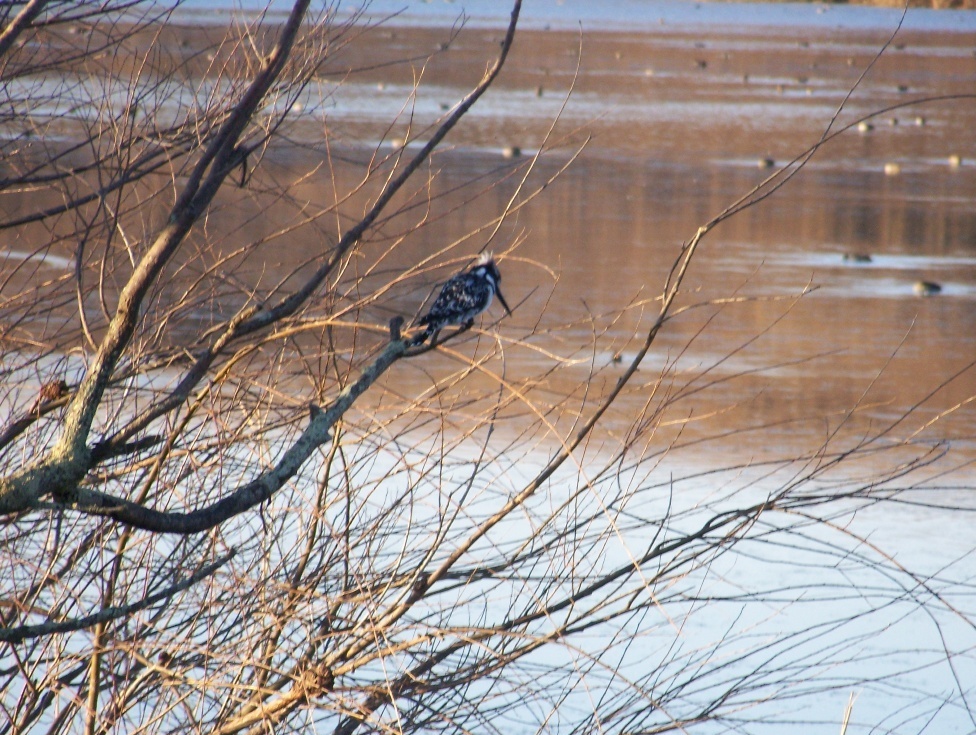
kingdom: Animalia
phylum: Chordata
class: Aves
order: Coraciiformes
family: Alcedinidae
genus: Ceryle
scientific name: Ceryle rudis
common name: Pied kingfisher
